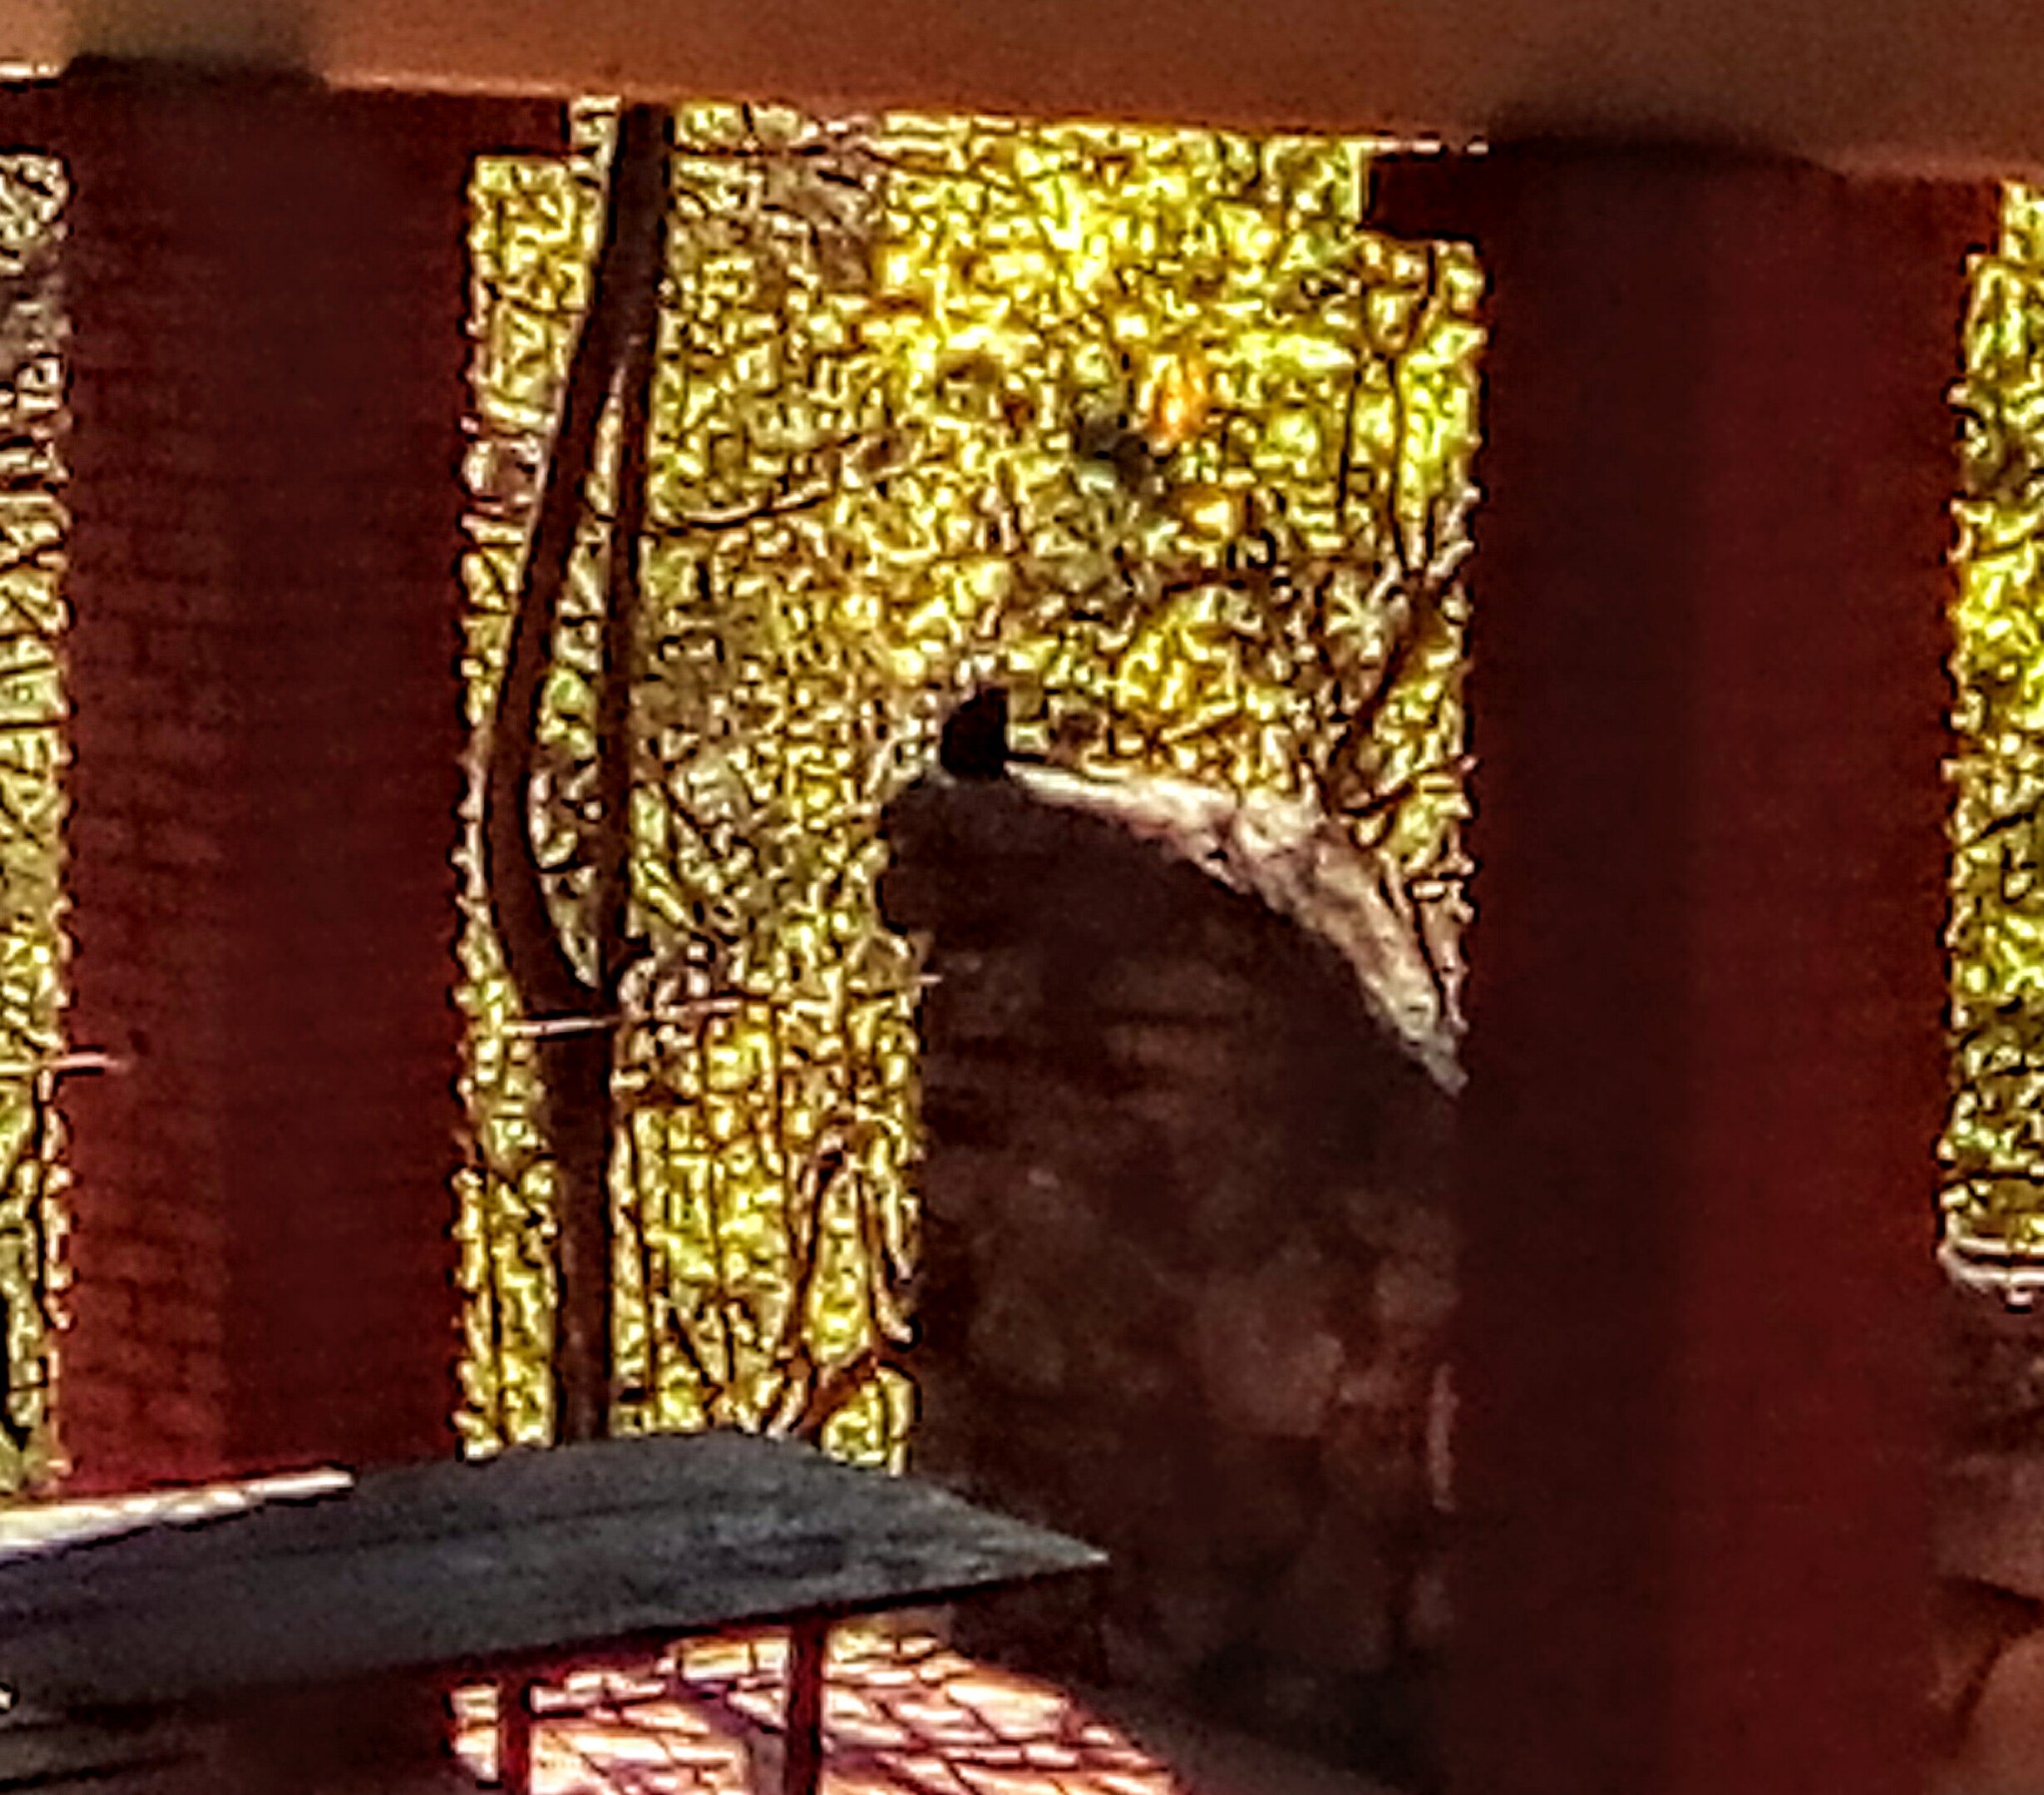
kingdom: Animalia
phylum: Chordata
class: Mammalia
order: Rodentia
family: Sciuridae
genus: Otospermophilus
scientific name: Otospermophilus variegatus
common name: Rock squirrel
